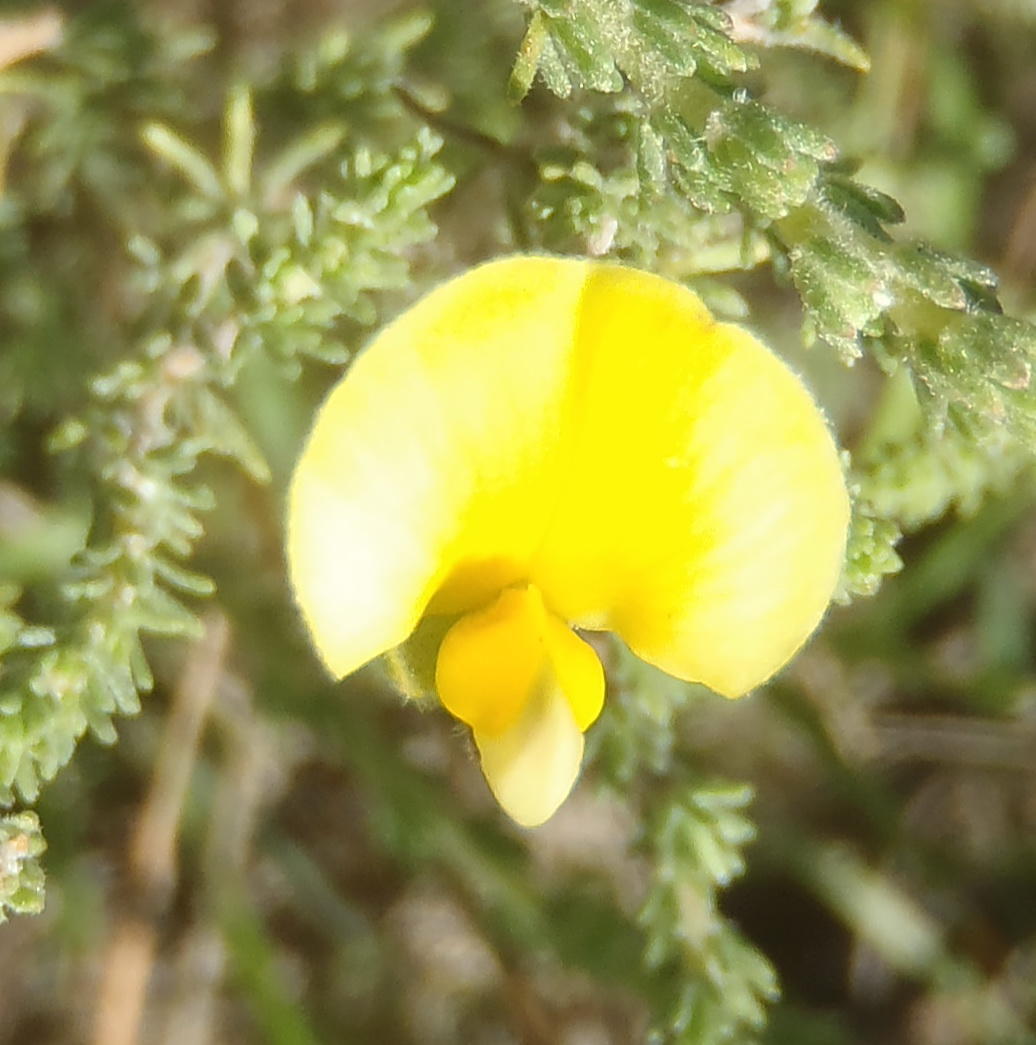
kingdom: Plantae
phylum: Tracheophyta
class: Magnoliopsida
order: Fabales
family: Fabaceae
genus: Aspalathus
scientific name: Aspalathus cymbiformis
